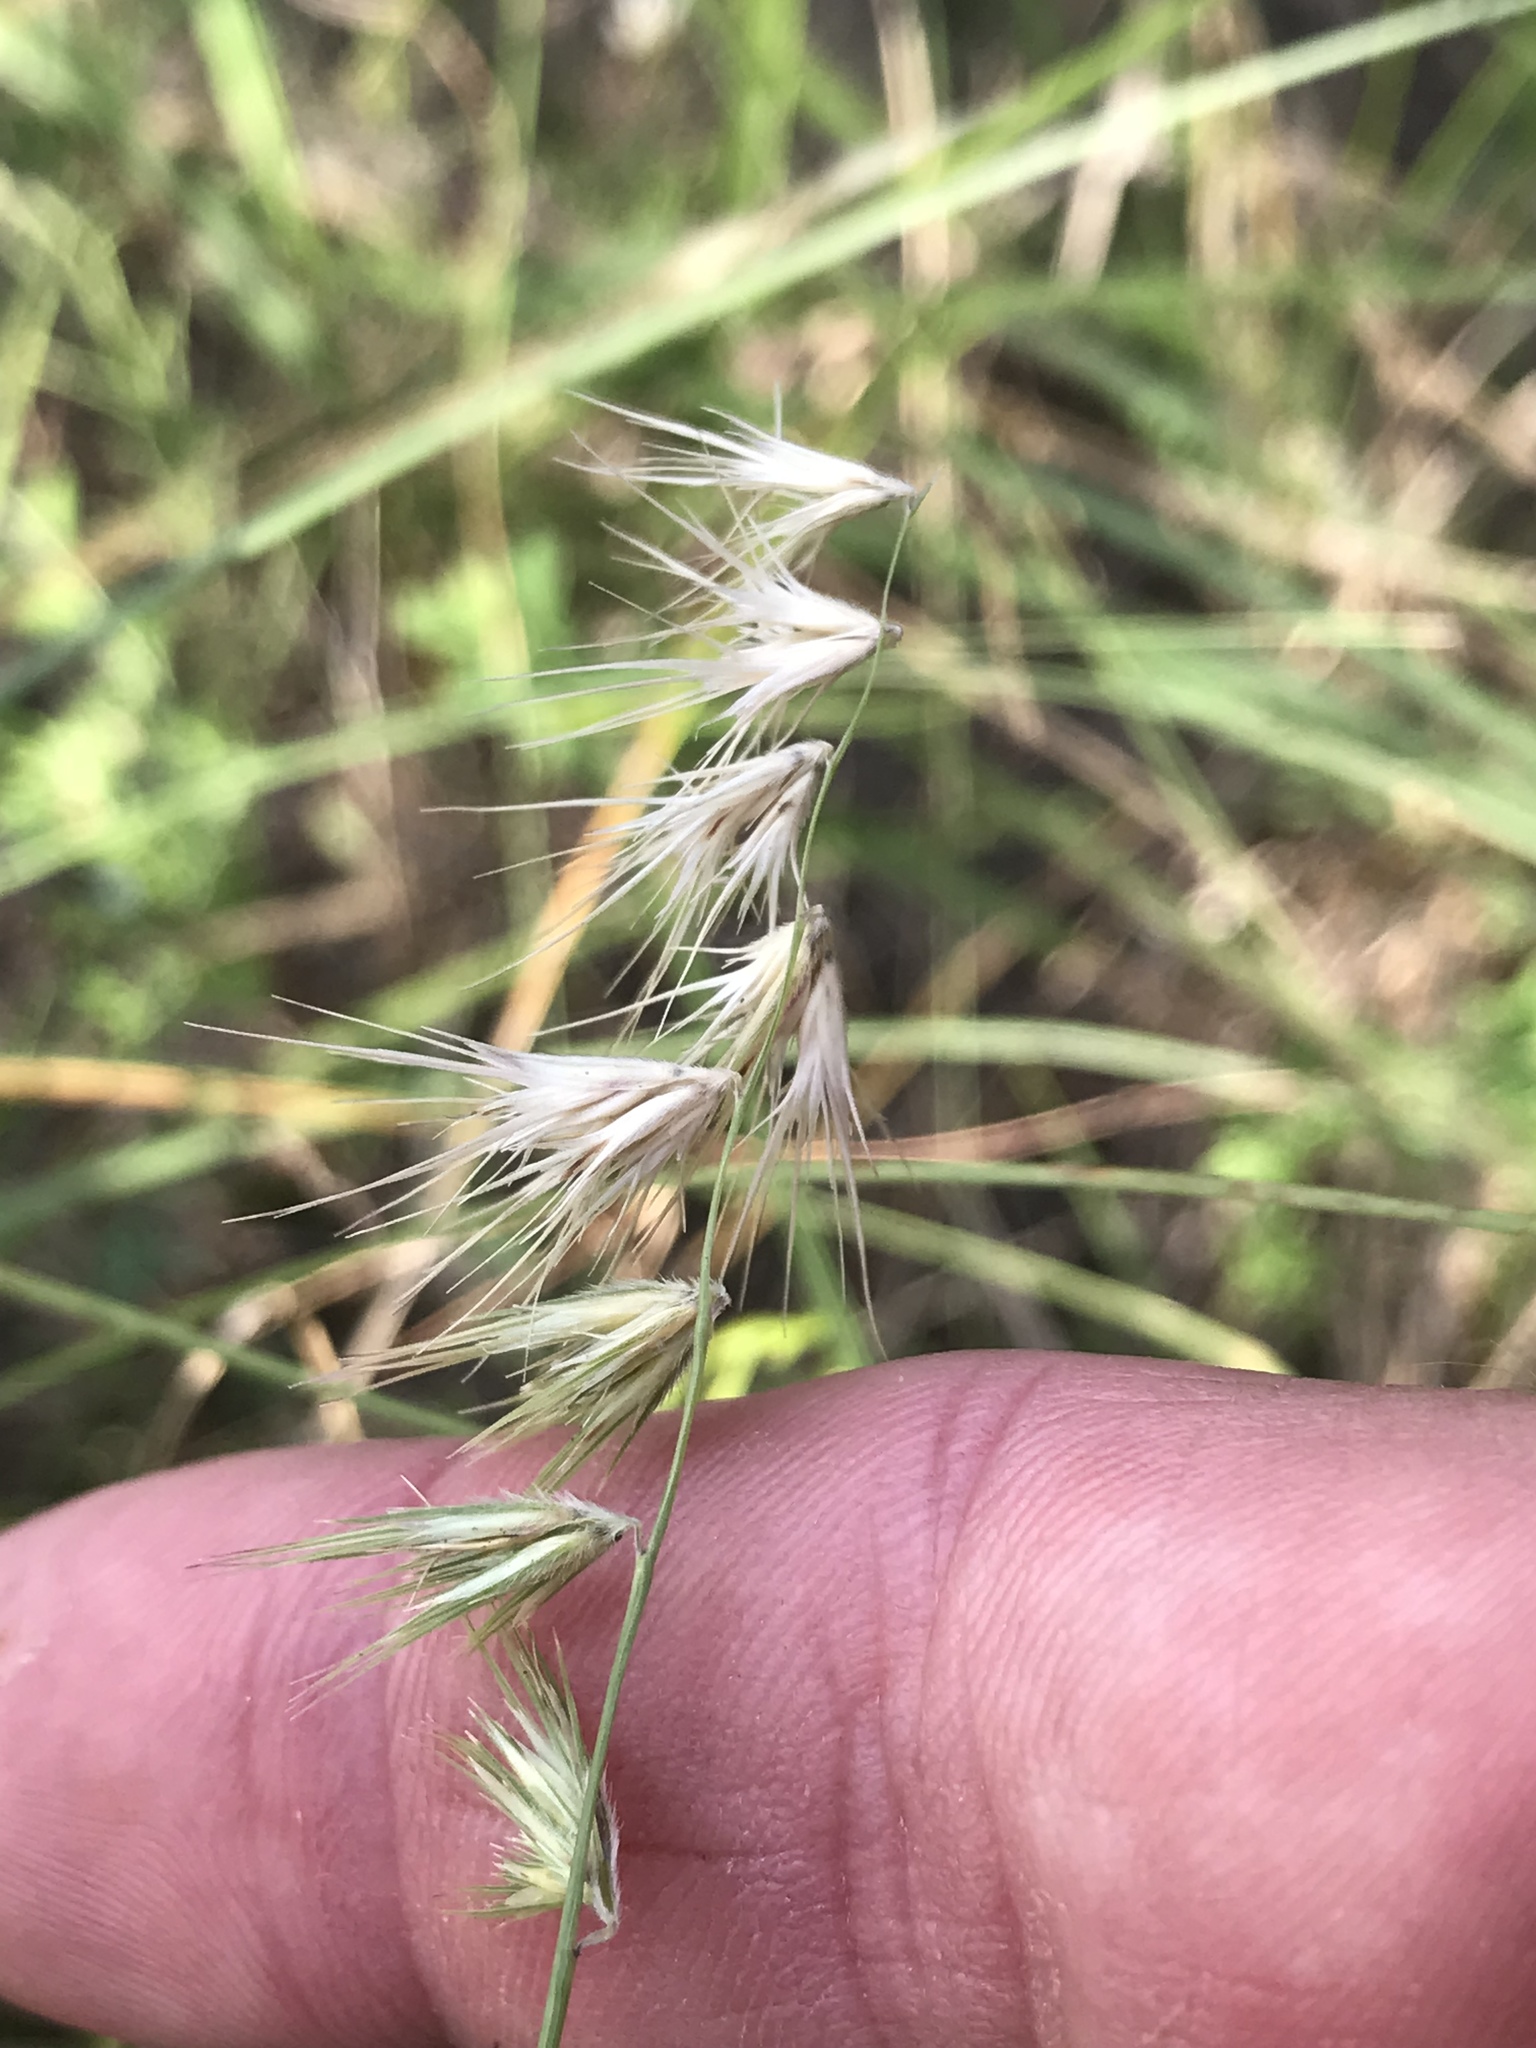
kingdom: Plantae
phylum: Tracheophyta
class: Liliopsida
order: Poales
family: Poaceae
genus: Bouteloua
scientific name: Bouteloua rigidiseta
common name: Texas grama
